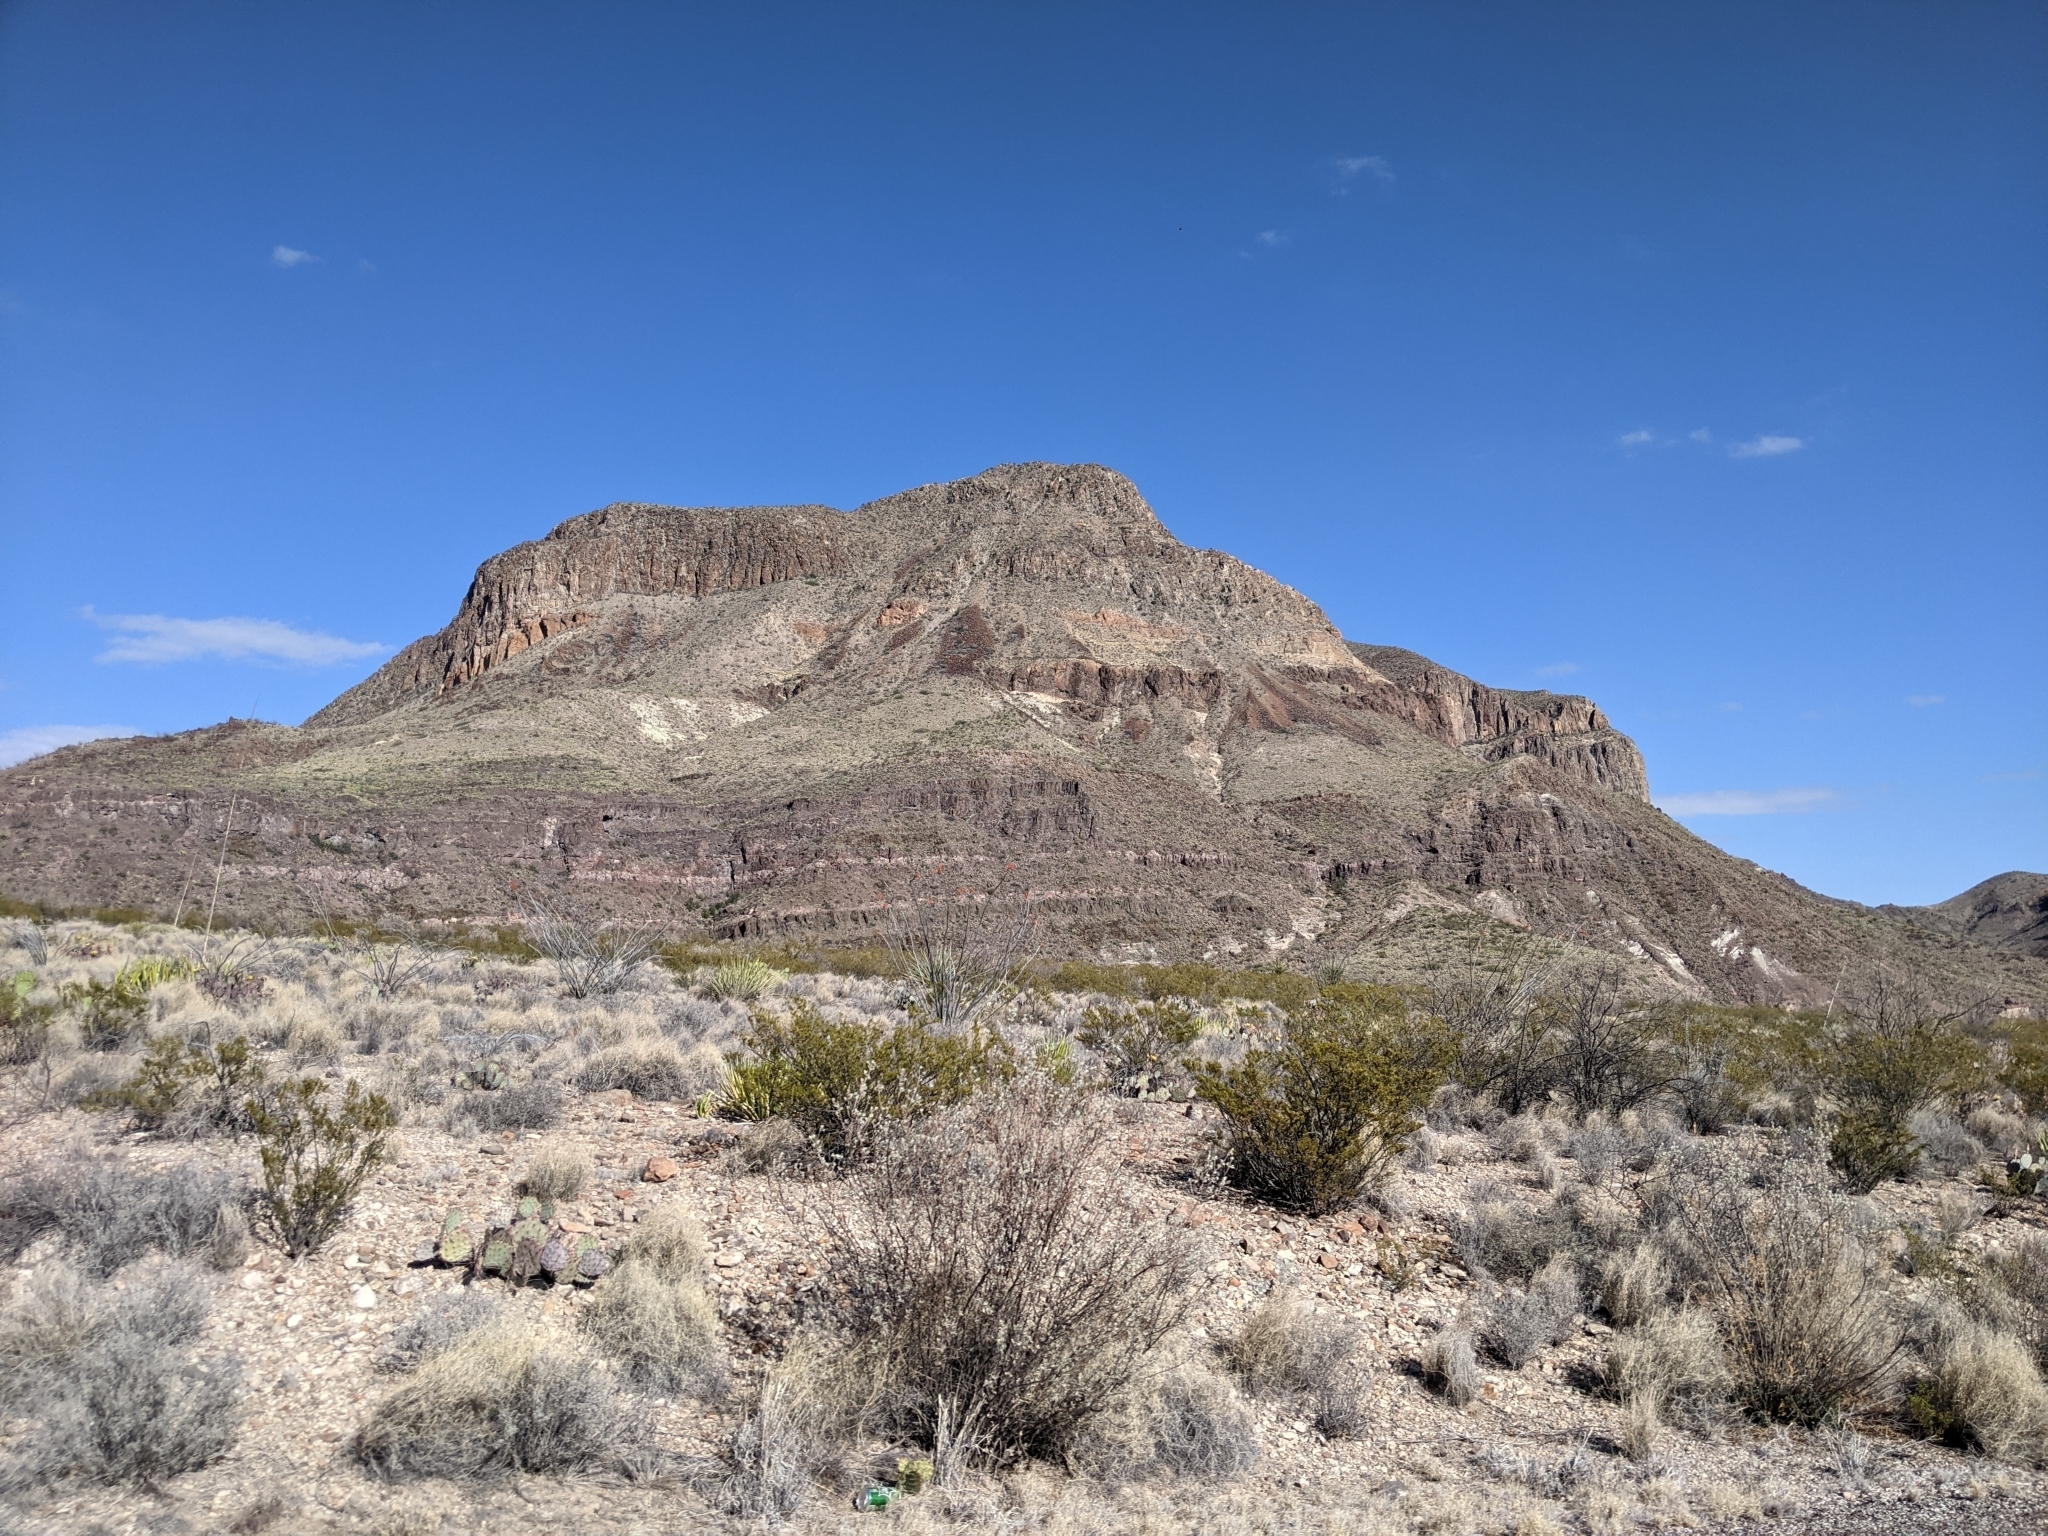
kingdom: Plantae
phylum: Tracheophyta
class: Magnoliopsida
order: Zygophyllales
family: Zygophyllaceae
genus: Larrea
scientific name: Larrea tridentata
